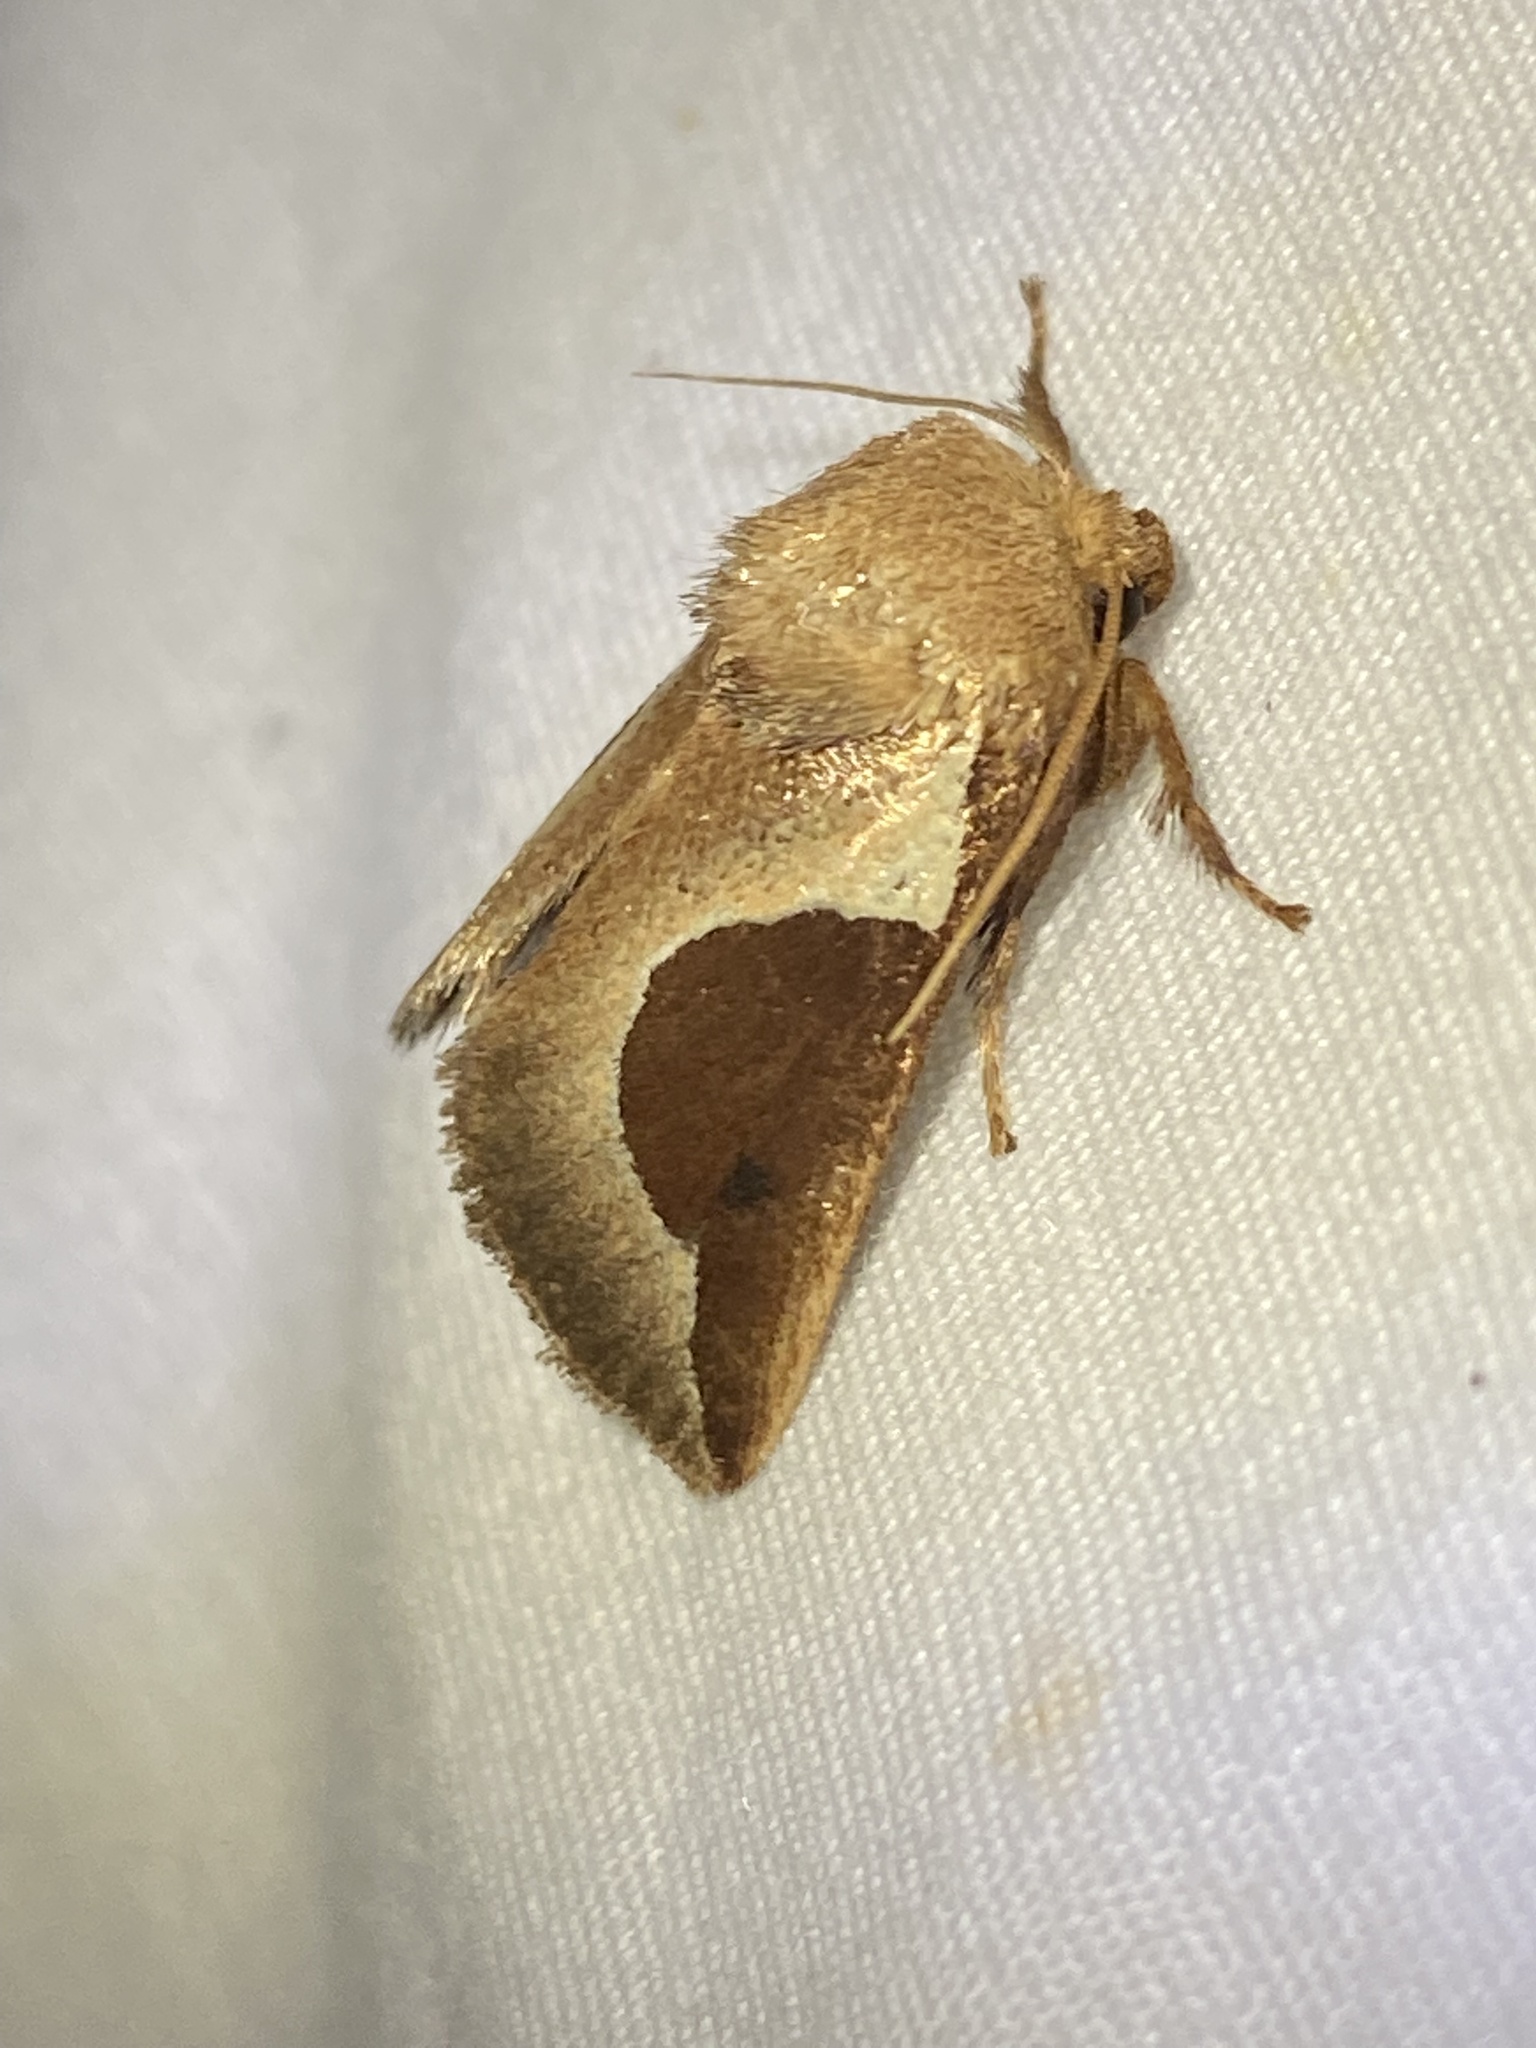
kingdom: Animalia
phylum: Arthropoda
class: Insecta
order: Lepidoptera
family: Limacodidae
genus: Prolimacodes
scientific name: Prolimacodes badia
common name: Skiff moth
